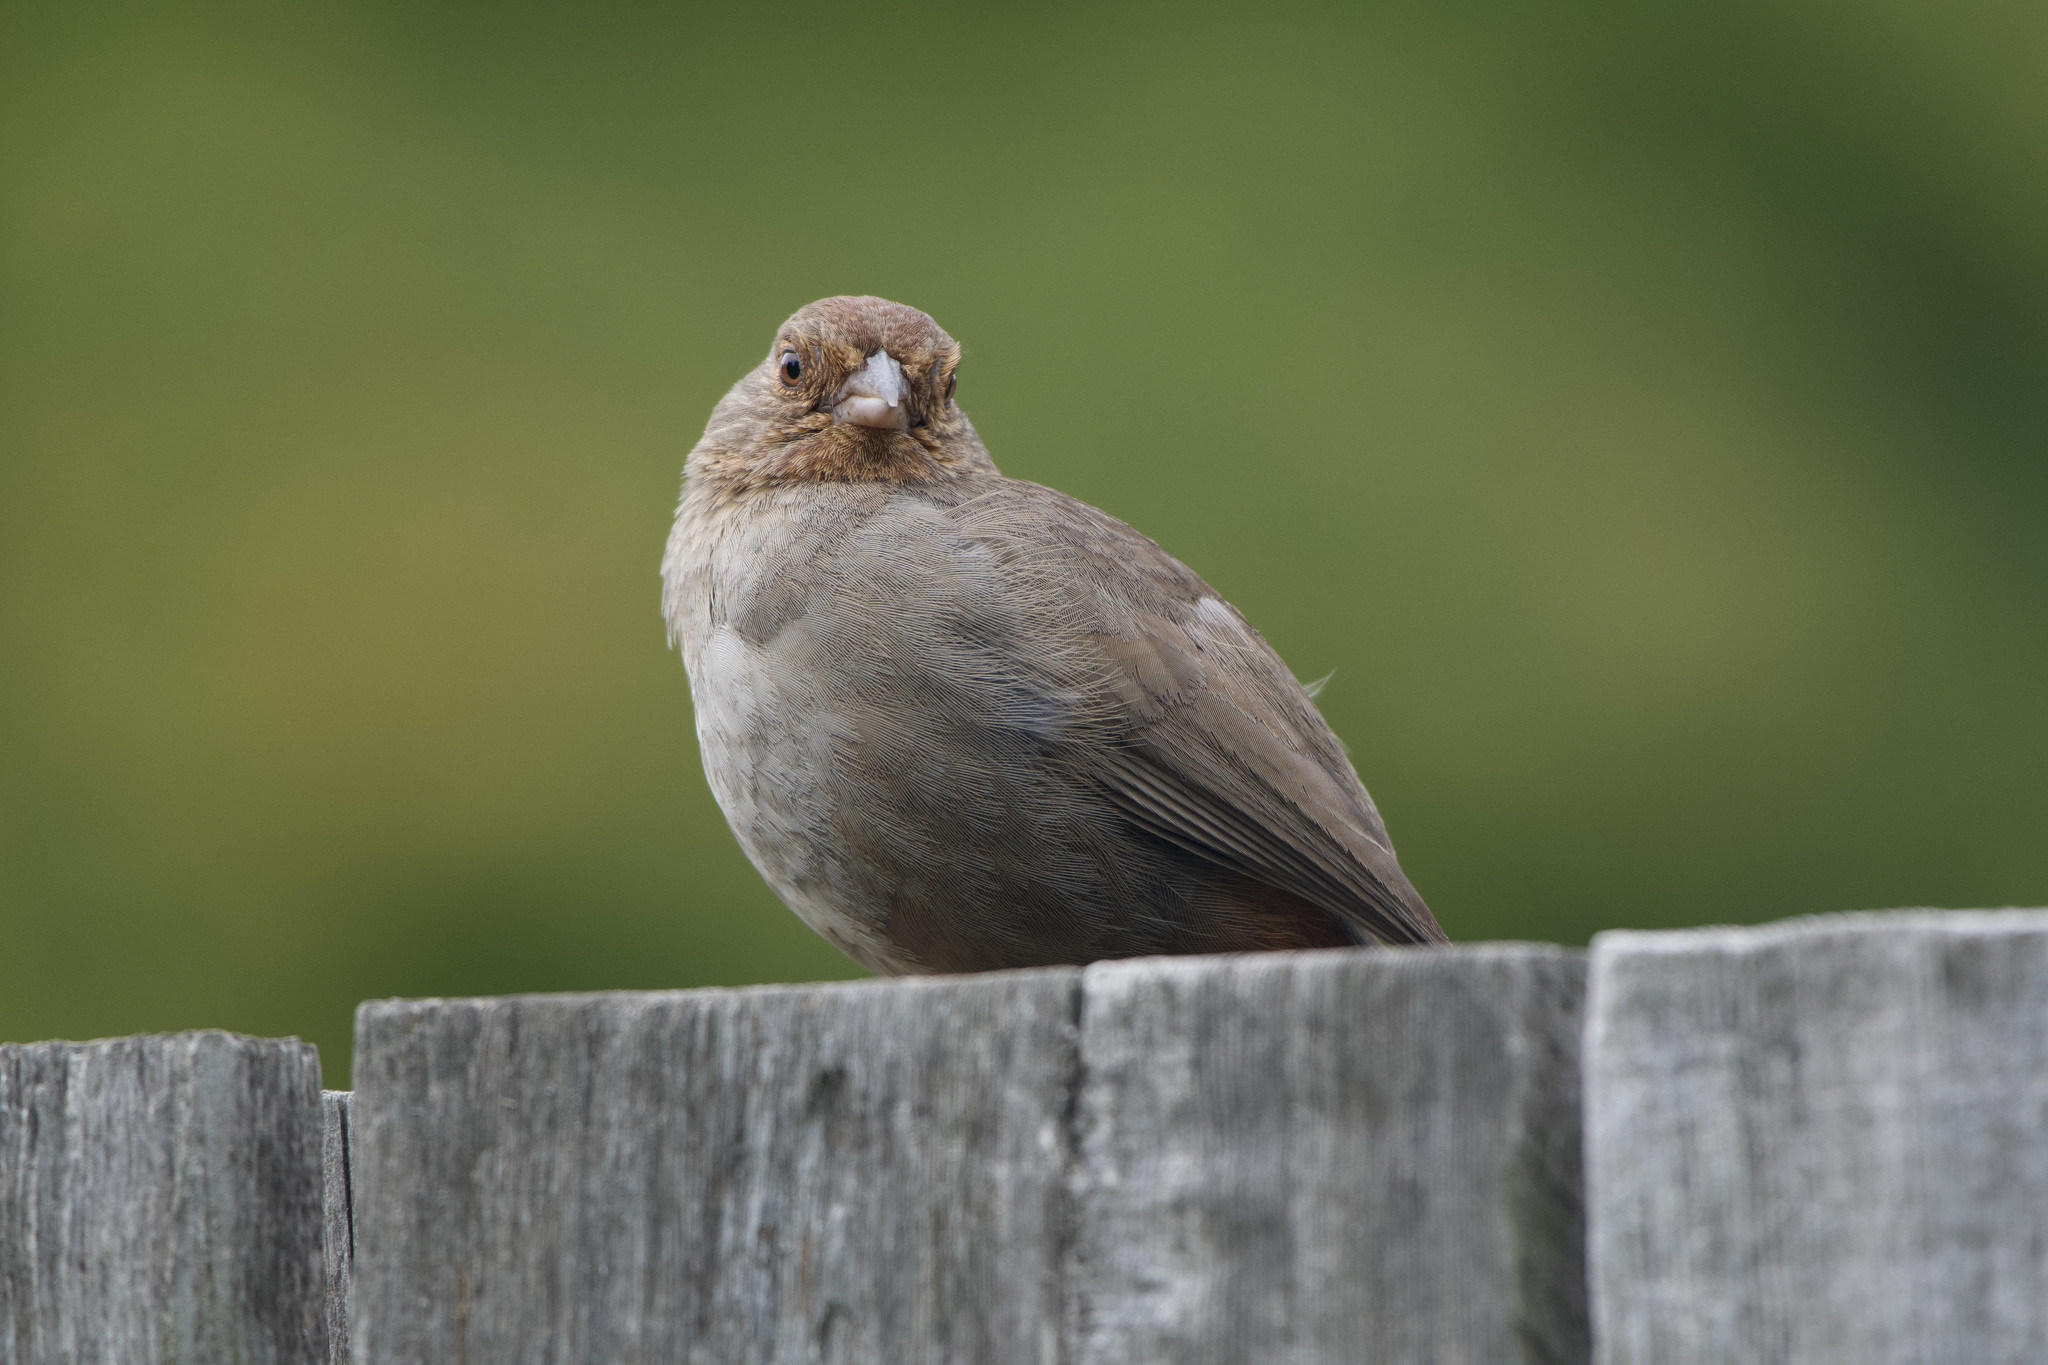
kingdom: Animalia
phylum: Chordata
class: Aves
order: Passeriformes
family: Passerellidae
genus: Melozone
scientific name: Melozone crissalis
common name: California towhee
